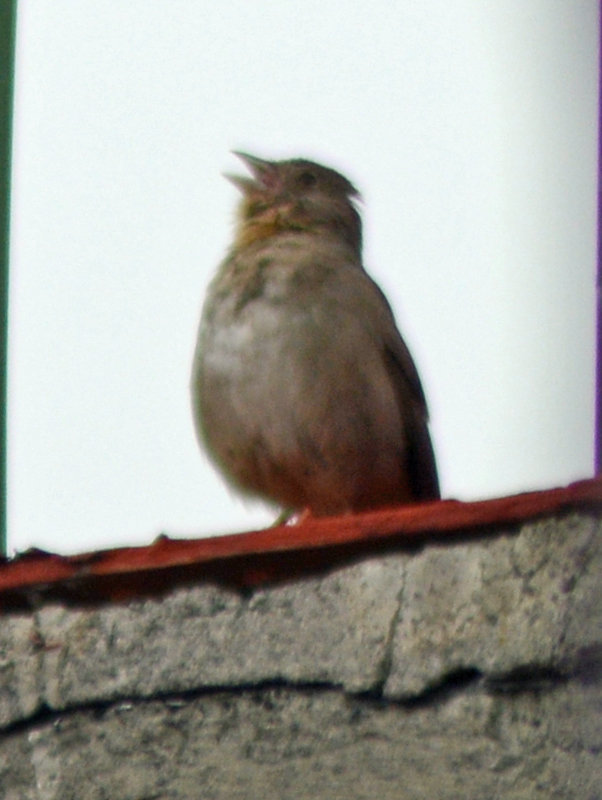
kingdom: Animalia
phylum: Chordata
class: Aves
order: Passeriformes
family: Passerellidae
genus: Melozone
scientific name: Melozone fusca
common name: Canyon towhee
